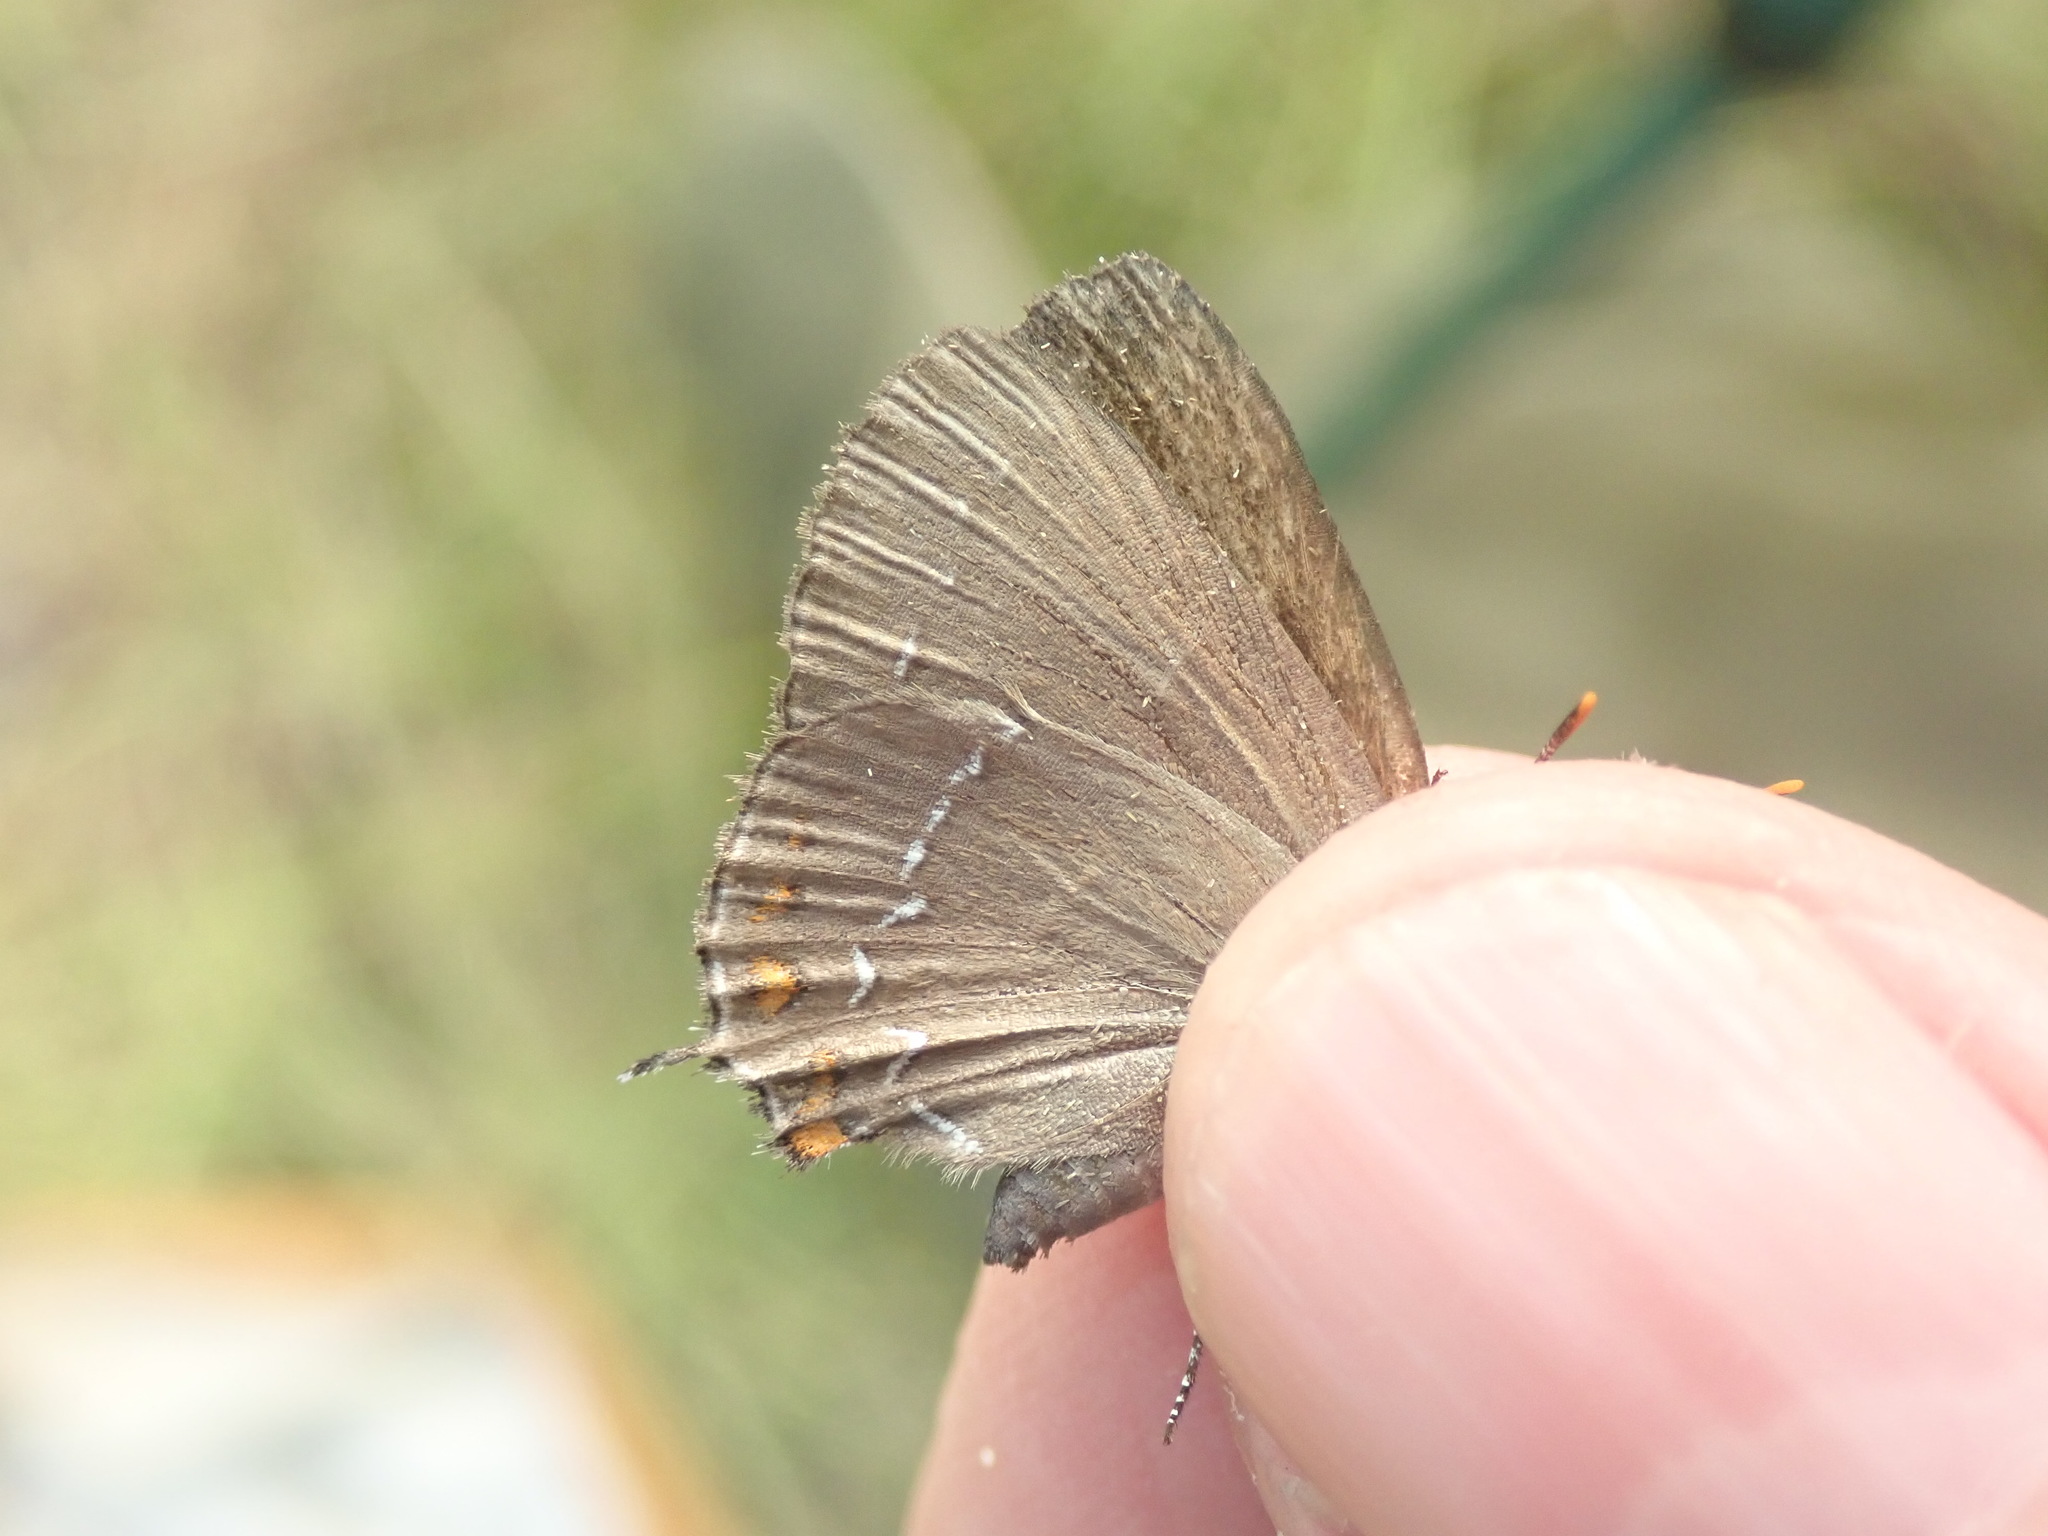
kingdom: Animalia
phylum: Arthropoda
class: Insecta
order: Lepidoptera
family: Lycaenidae
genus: Nordmannia
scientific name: Nordmannia ilicis
